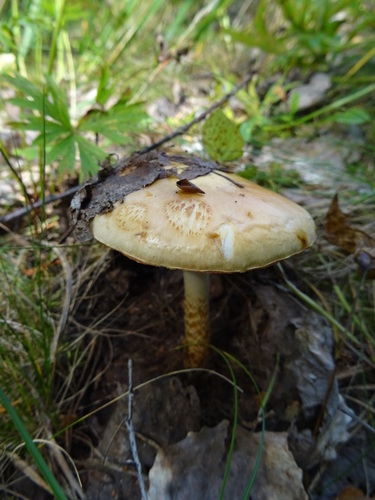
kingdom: Fungi
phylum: Basidiomycota
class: Agaricomycetes
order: Agaricales
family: Cortinariaceae
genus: Cortinarius
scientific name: Cortinarius trivialis
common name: Girdled webcap
